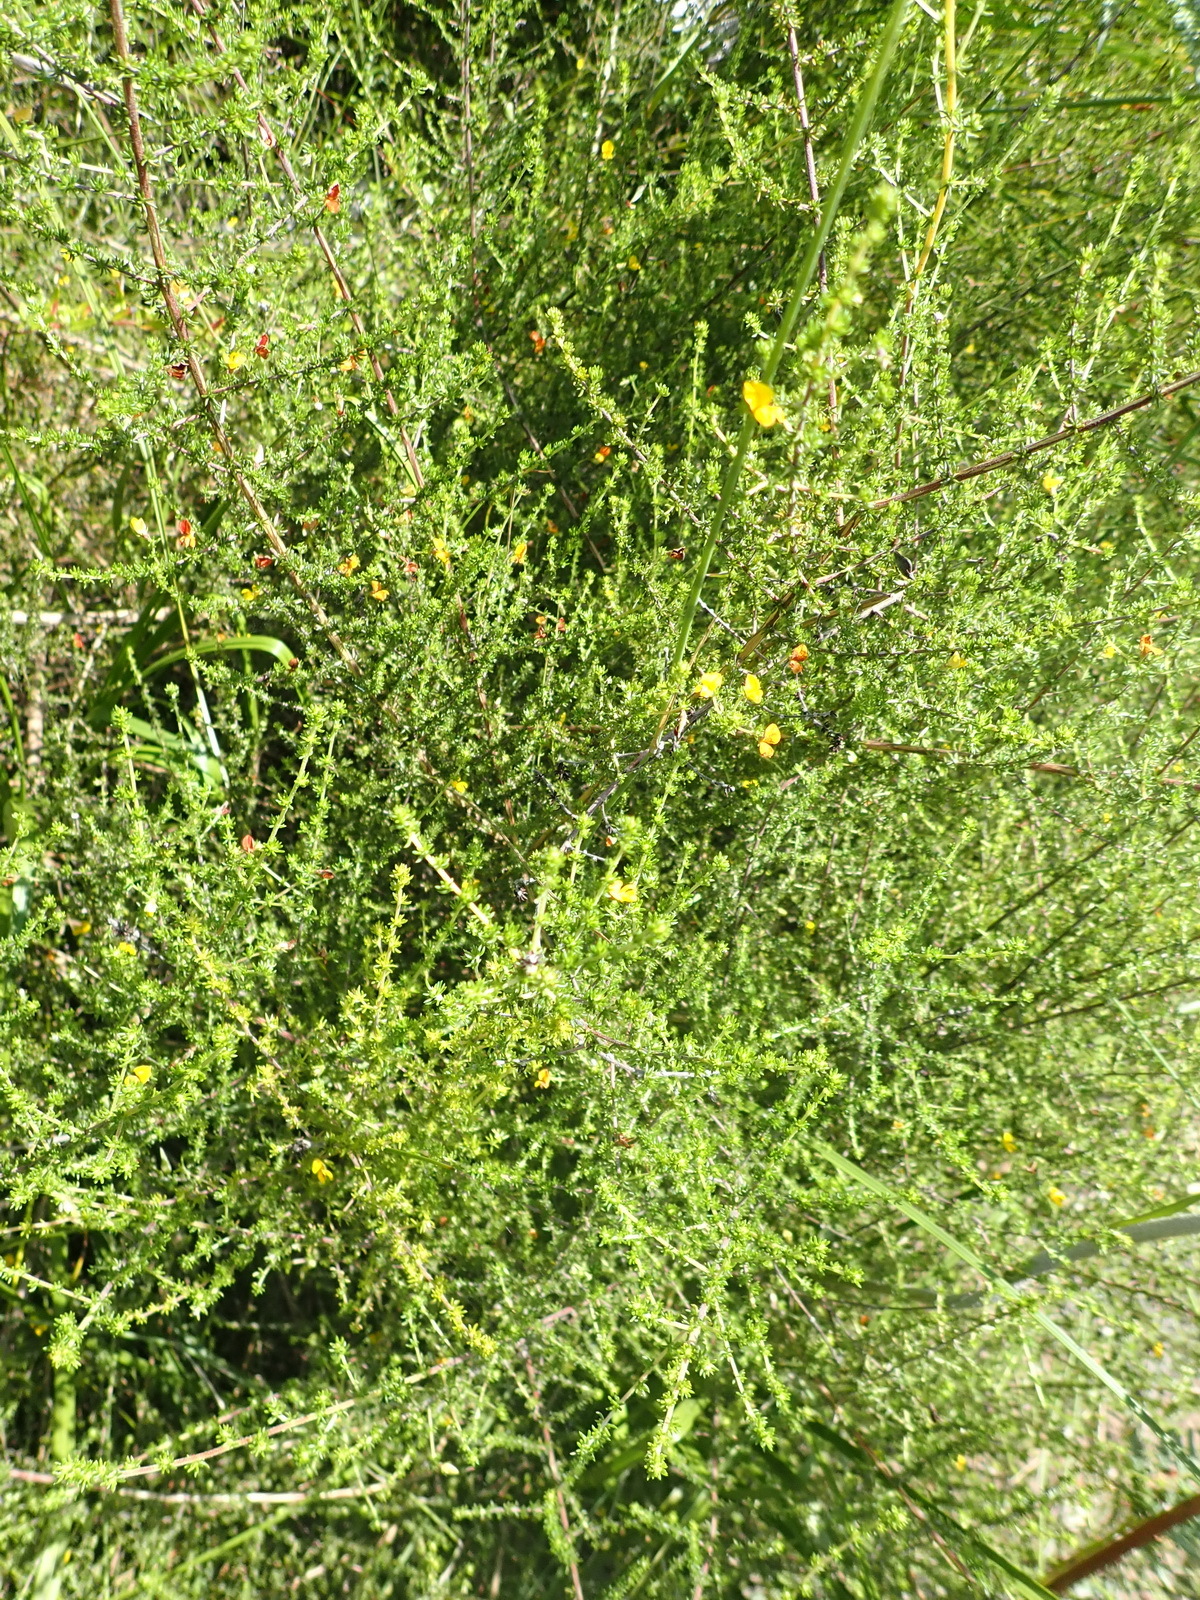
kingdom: Plantae
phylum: Tracheophyta
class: Magnoliopsida
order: Fabales
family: Fabaceae
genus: Aspalathus
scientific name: Aspalathus rubens
